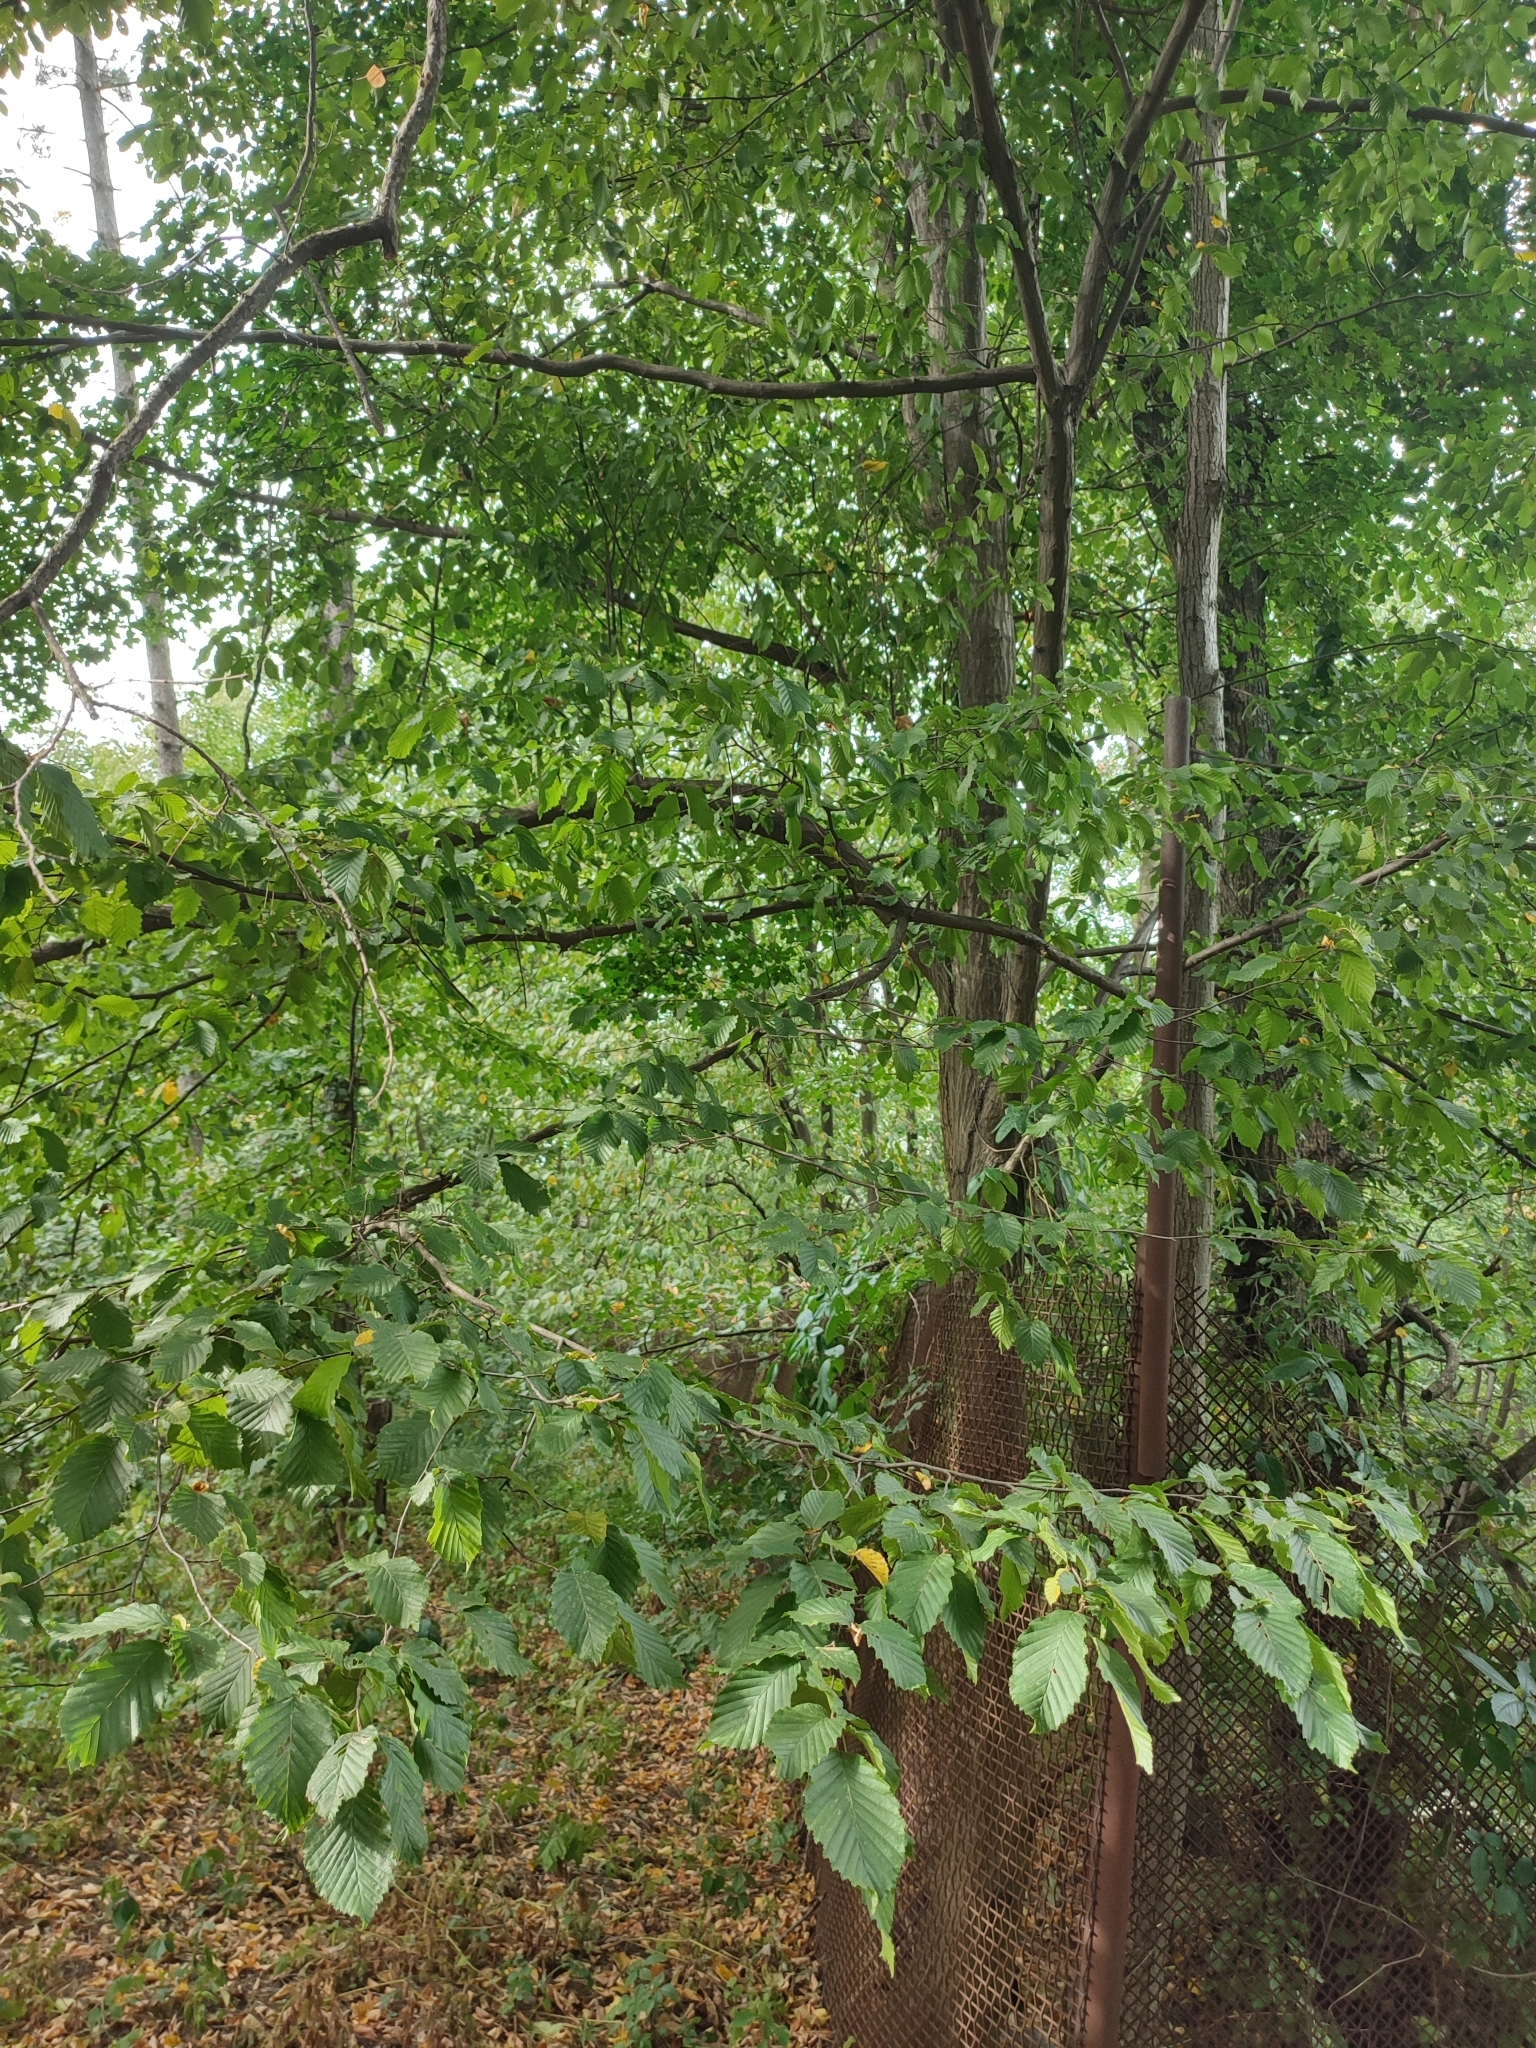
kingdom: Plantae
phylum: Tracheophyta
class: Magnoliopsida
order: Fagales
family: Betulaceae
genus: Carpinus
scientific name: Carpinus betulus
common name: Hornbeam
